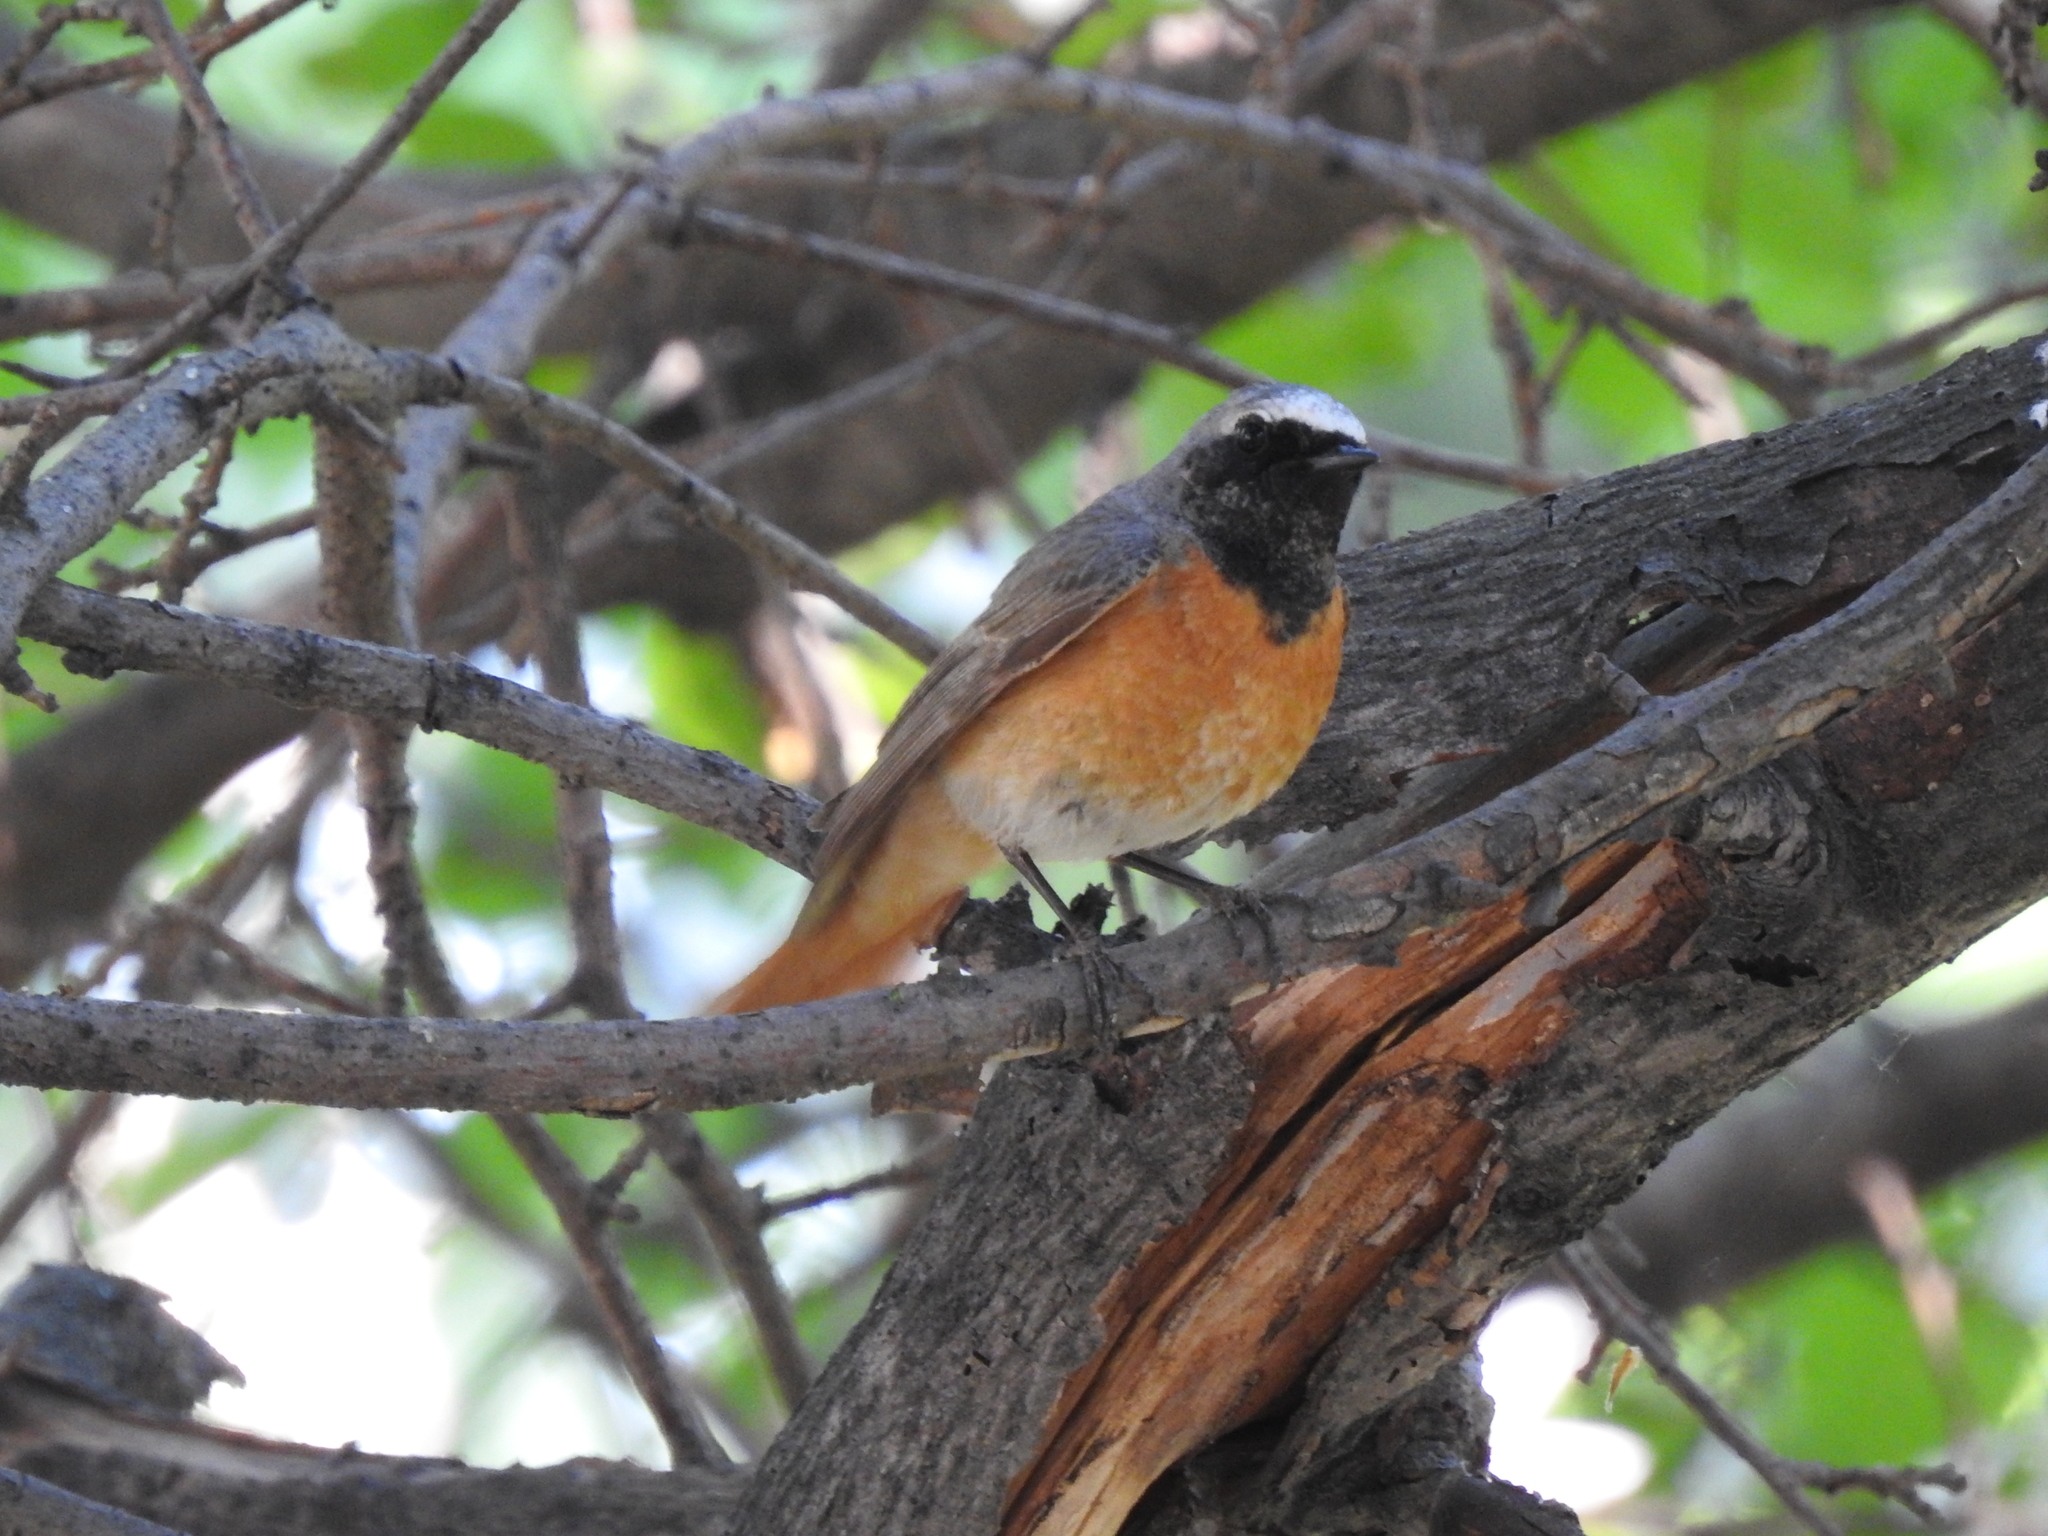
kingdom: Animalia
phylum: Chordata
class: Aves
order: Passeriformes
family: Muscicapidae
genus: Phoenicurus
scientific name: Phoenicurus phoenicurus
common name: Common redstart
